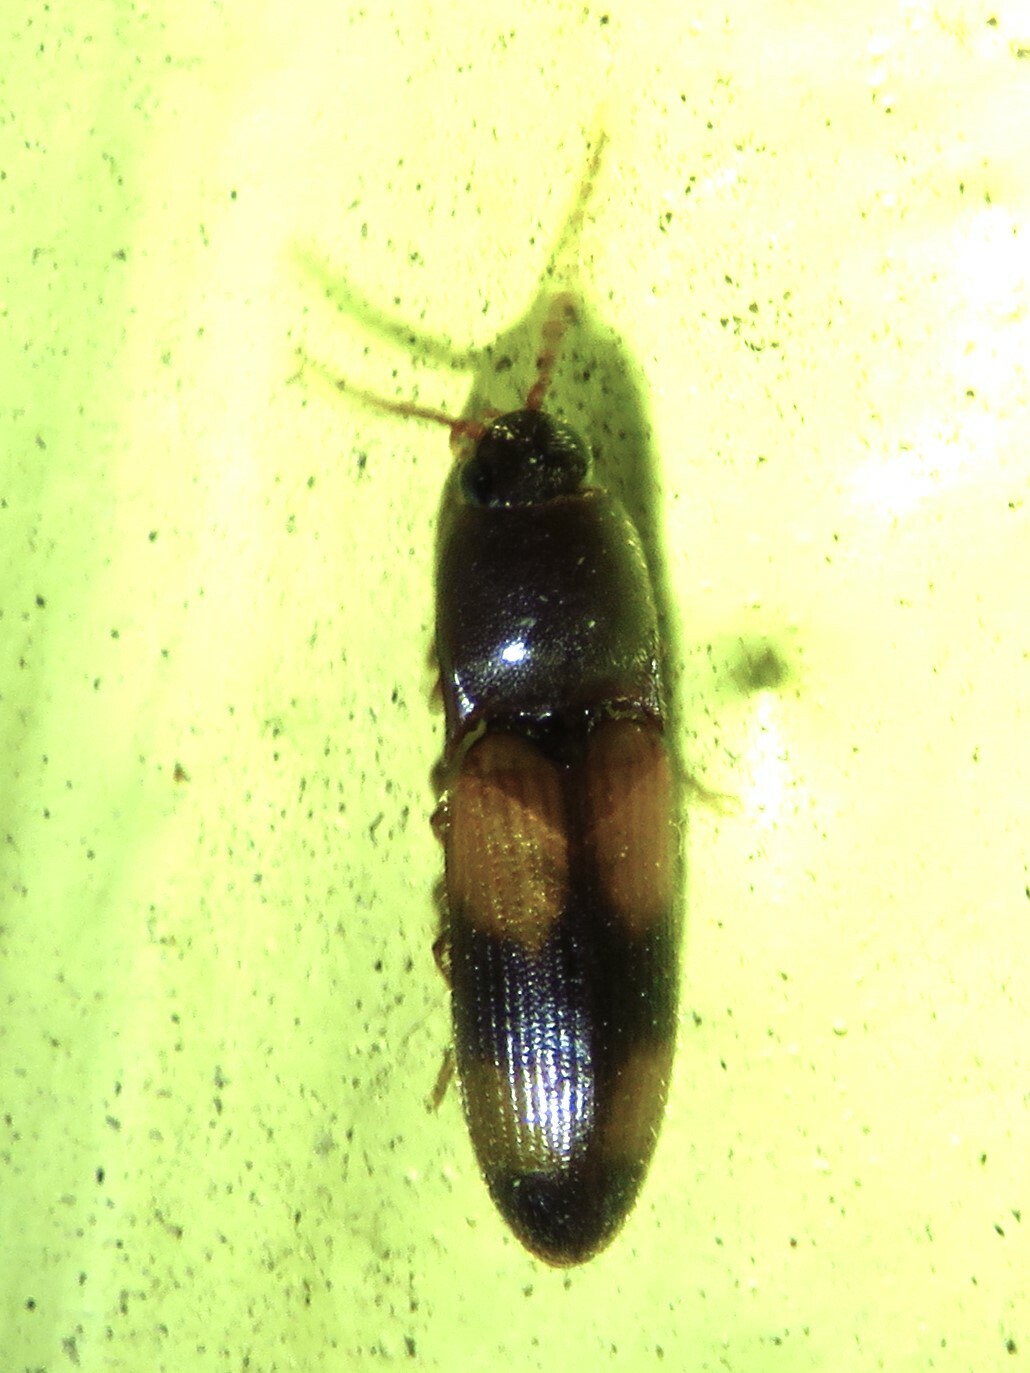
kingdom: Animalia
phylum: Arthropoda
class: Insecta
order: Coleoptera
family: Elateridae
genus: Anchastus
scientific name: Anchastus binus
